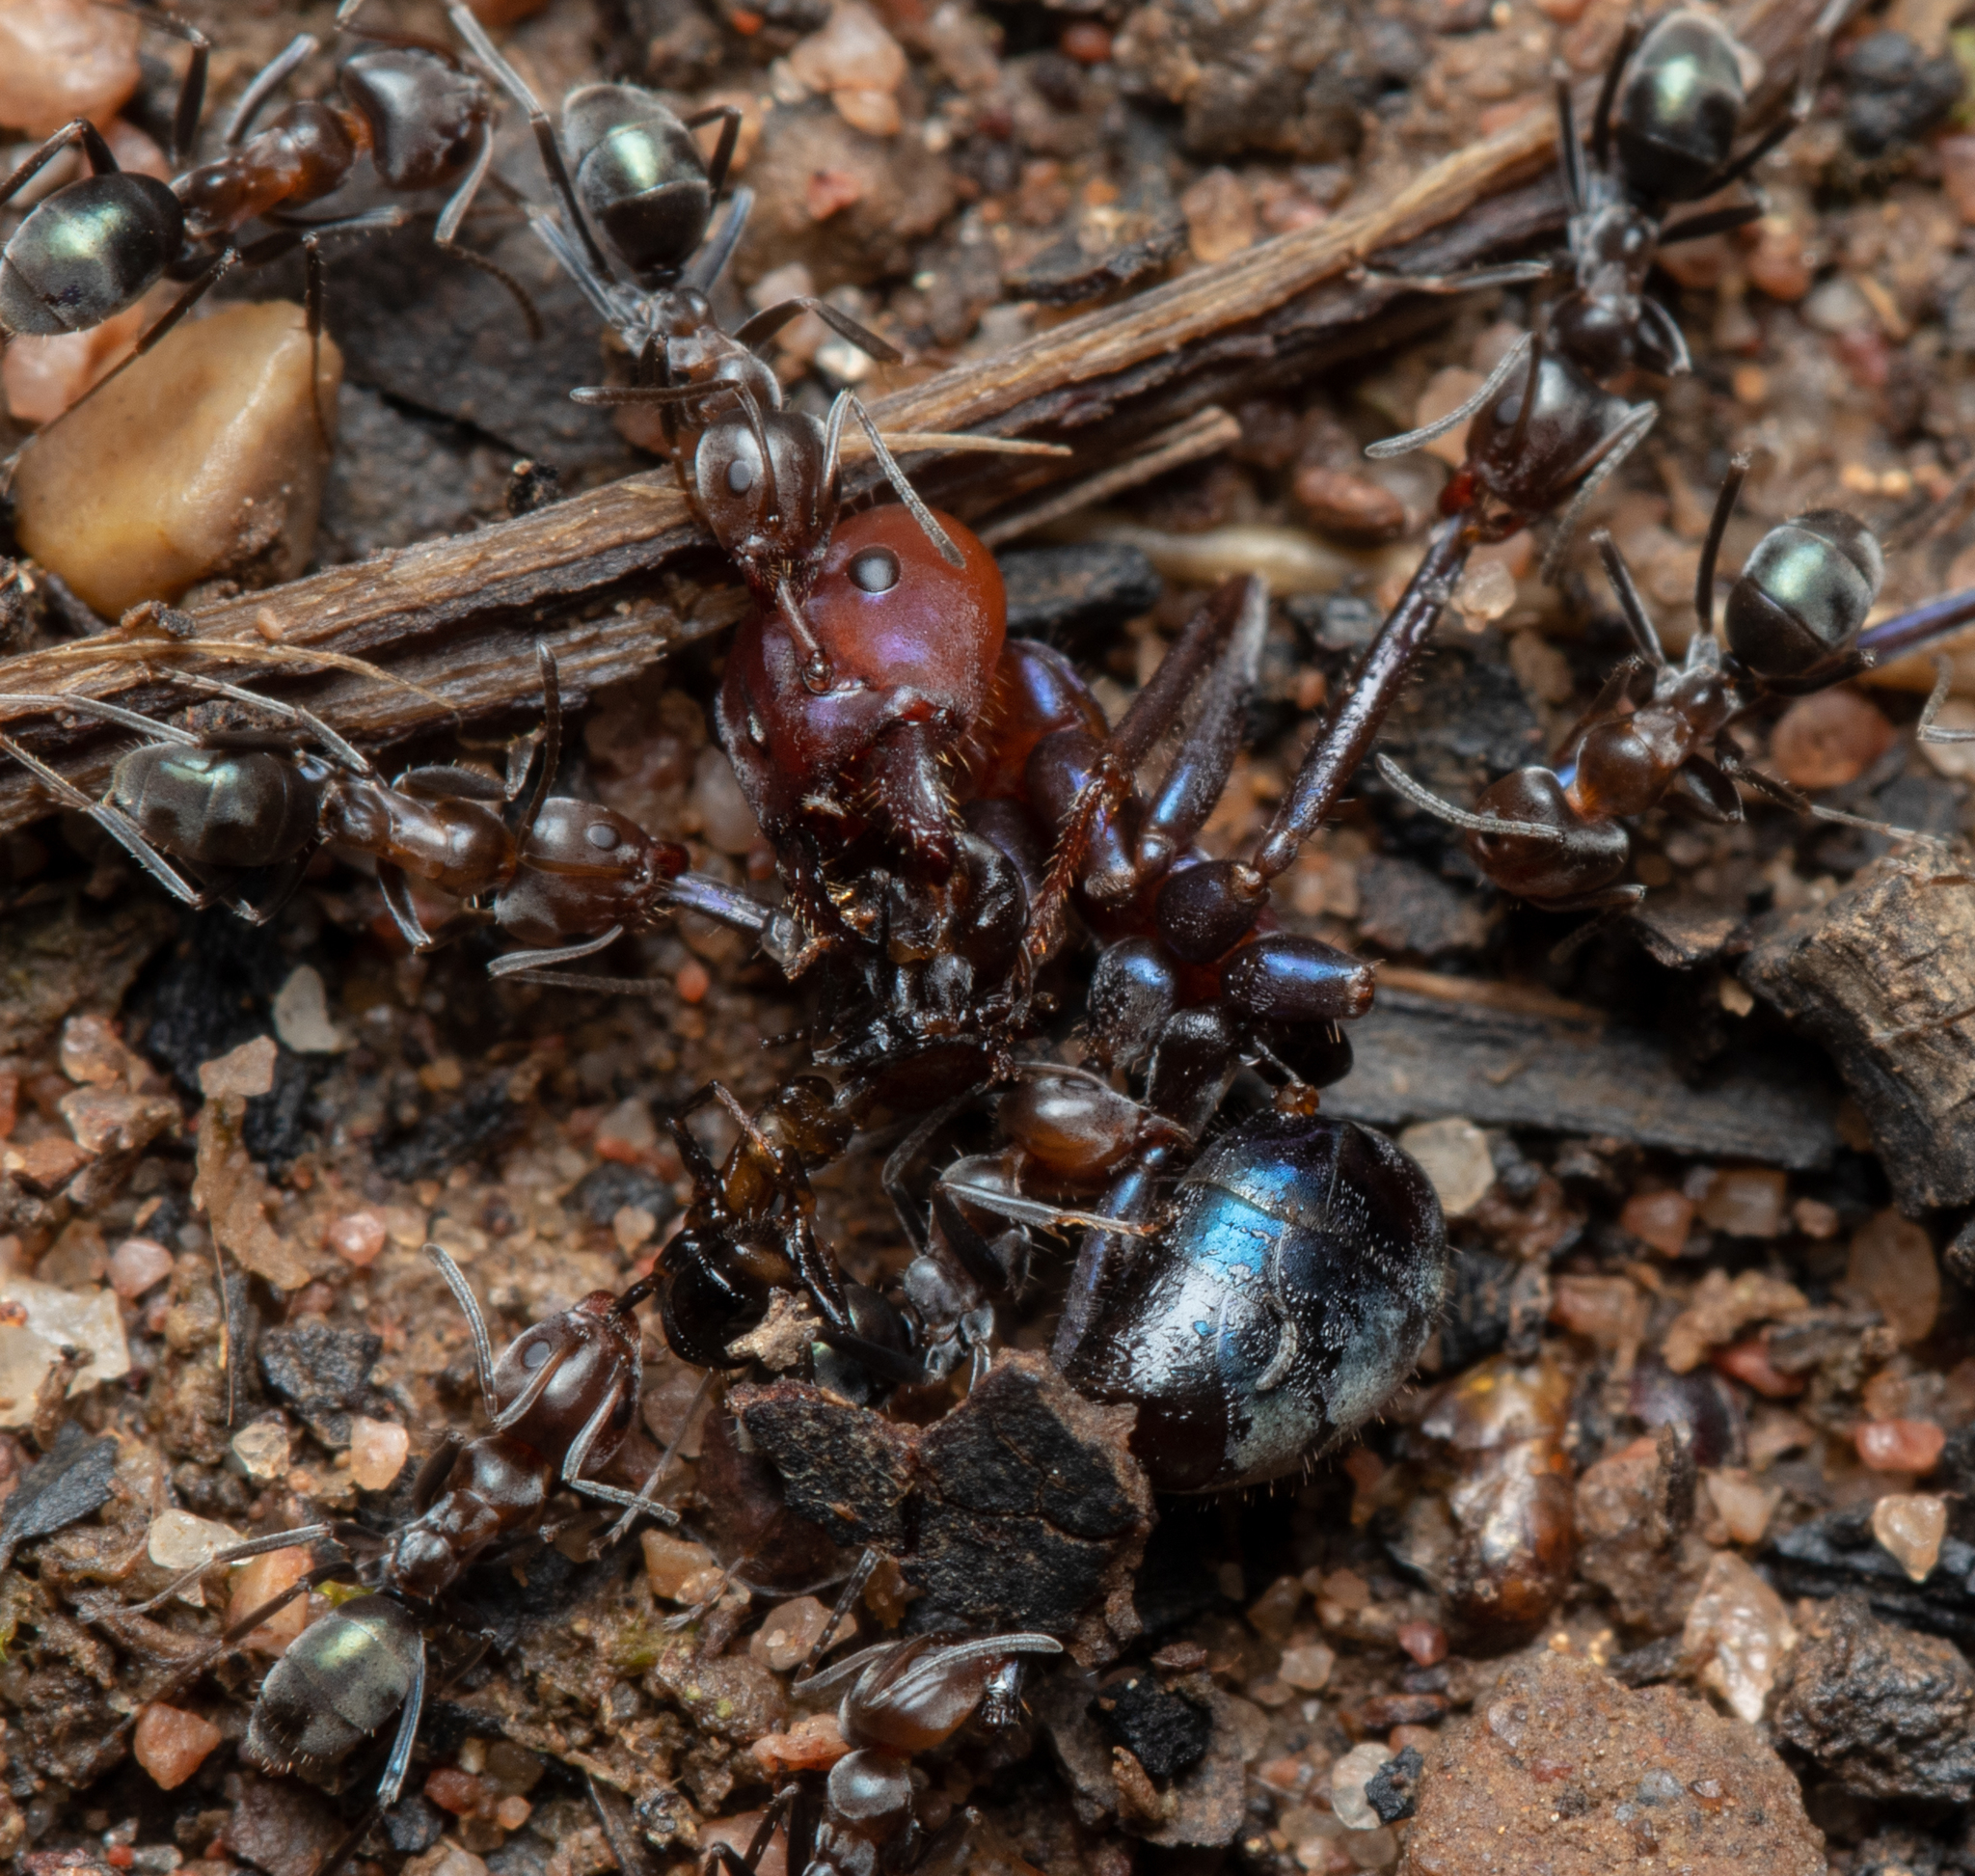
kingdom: Animalia
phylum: Arthropoda
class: Insecta
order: Hymenoptera
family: Formicidae
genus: Iridomyrmex
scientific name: Iridomyrmex purpureus
